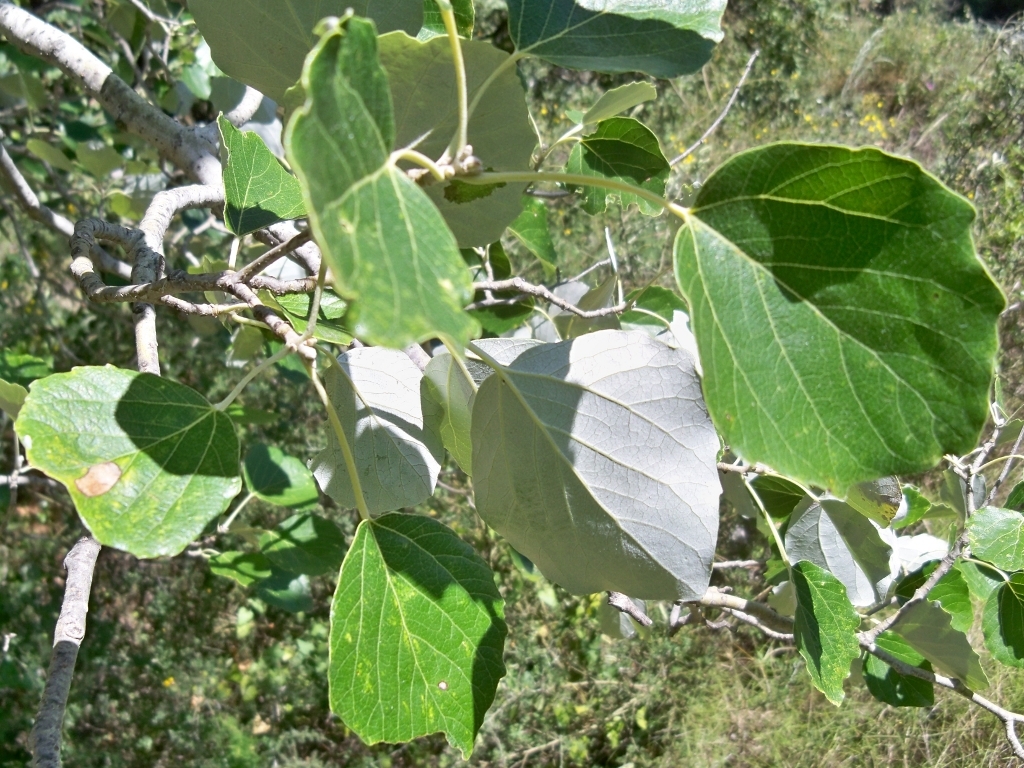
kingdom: Plantae
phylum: Tracheophyta
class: Magnoliopsida
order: Malpighiales
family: Salicaceae
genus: Populus
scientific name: Populus alba
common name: White poplar
